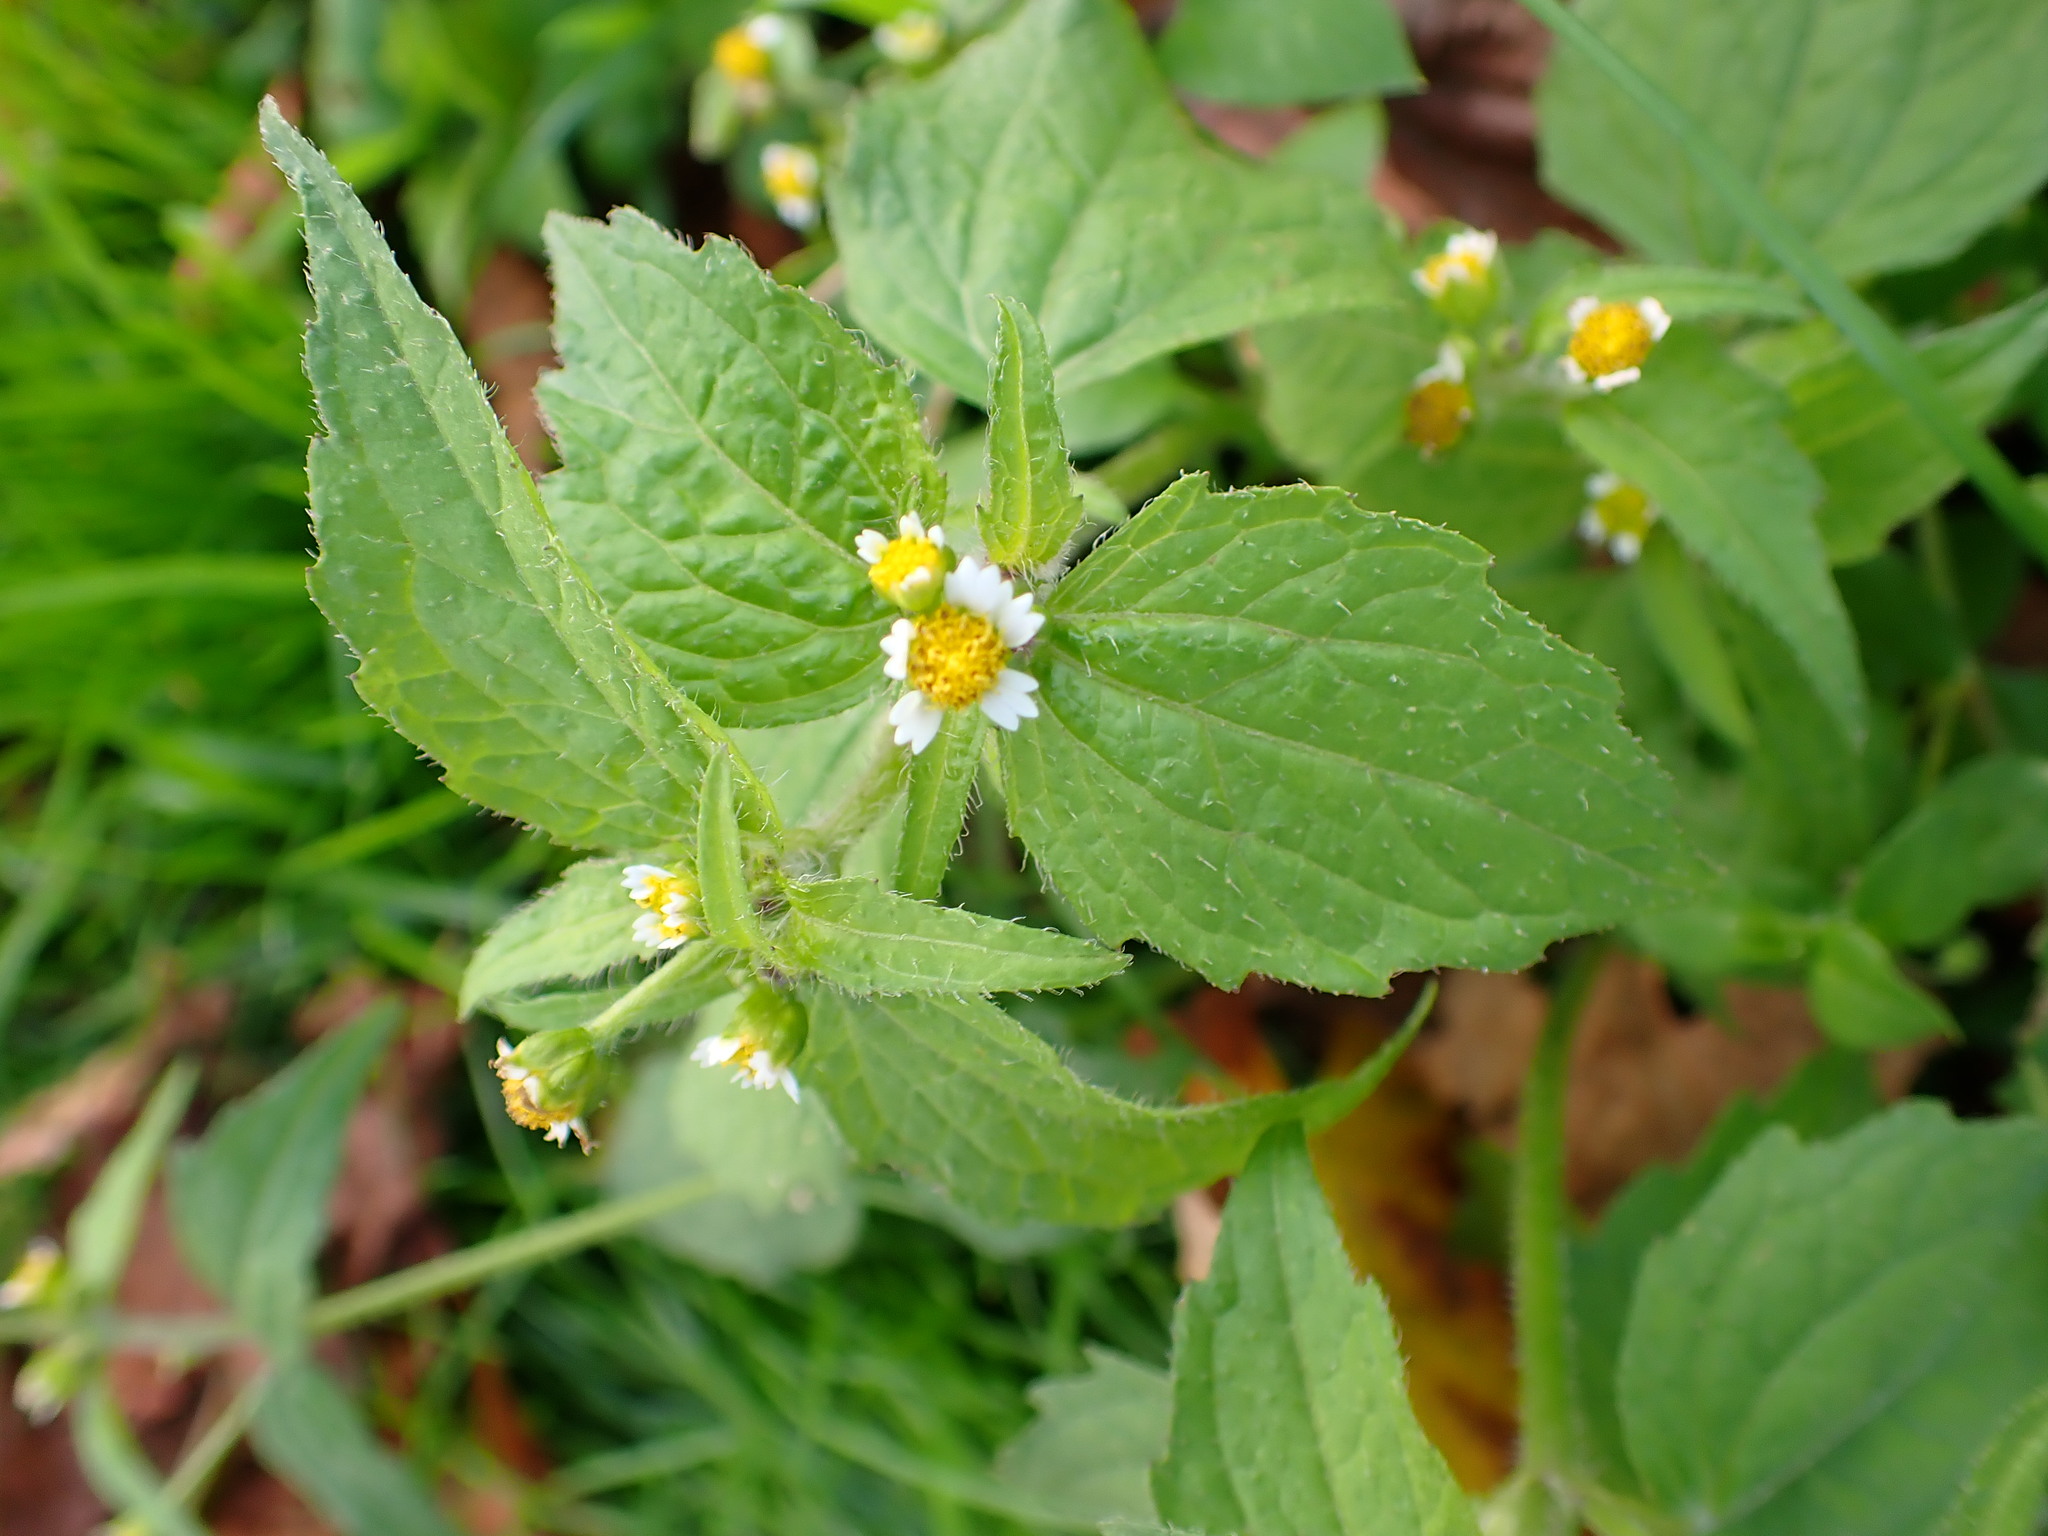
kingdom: Plantae
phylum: Tracheophyta
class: Magnoliopsida
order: Asterales
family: Asteraceae
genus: Galinsoga
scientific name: Galinsoga quadriradiata
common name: Shaggy soldier
